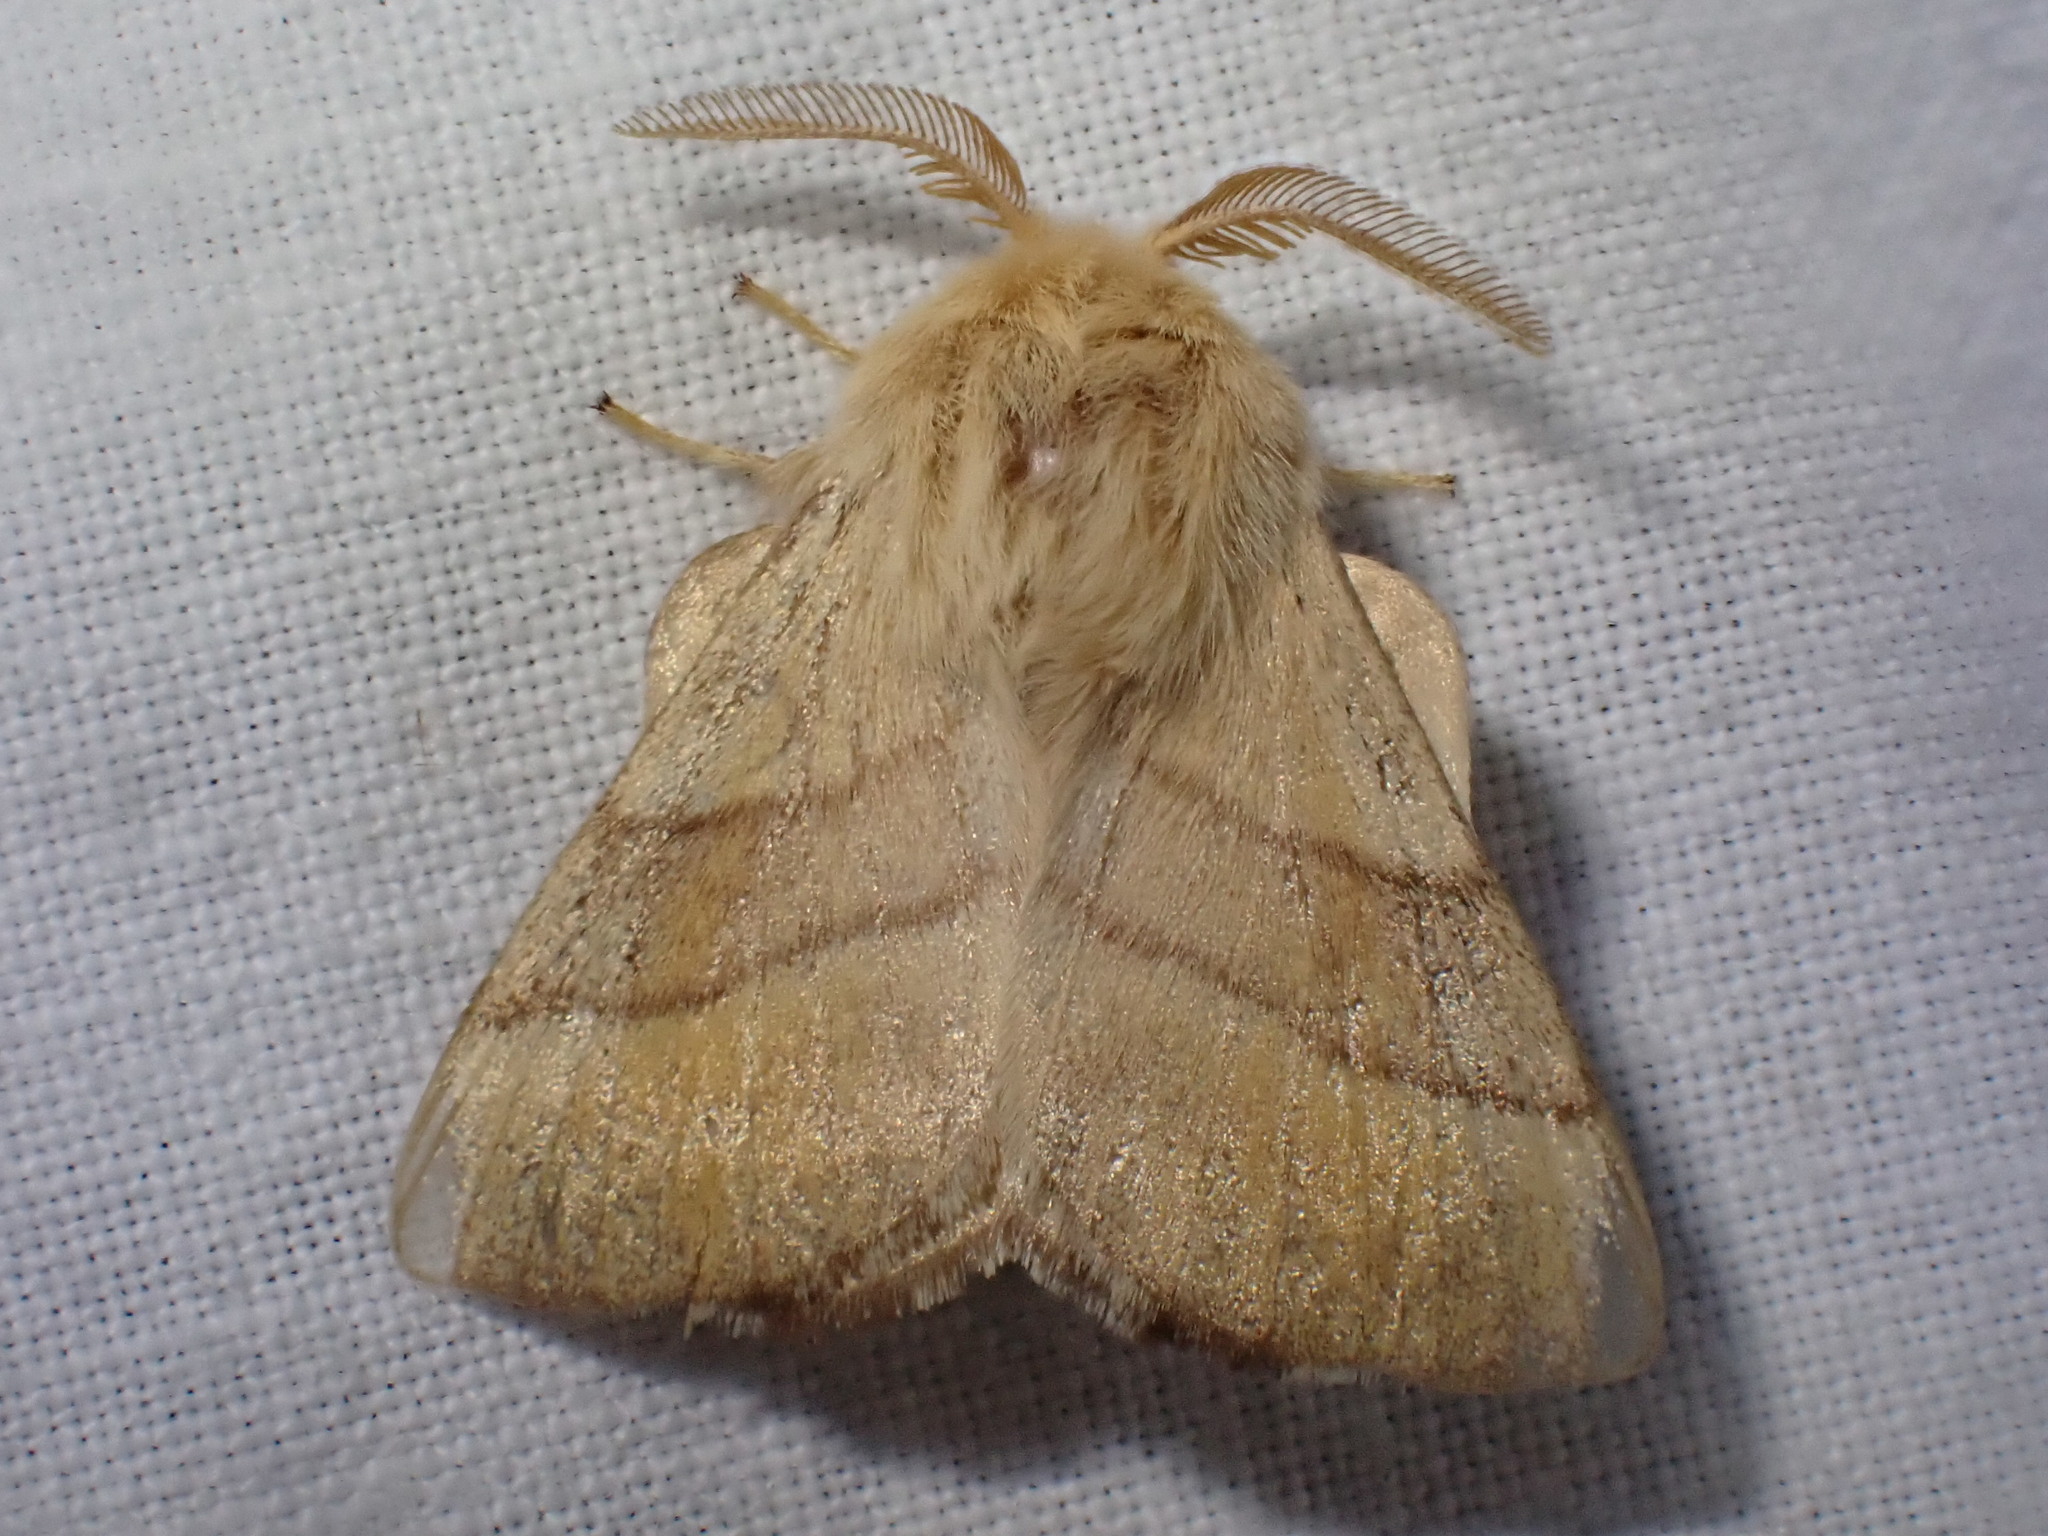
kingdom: Animalia
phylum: Arthropoda
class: Insecta
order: Lepidoptera
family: Lasiocampidae
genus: Malacosoma
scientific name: Malacosoma neustria
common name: The lackey
